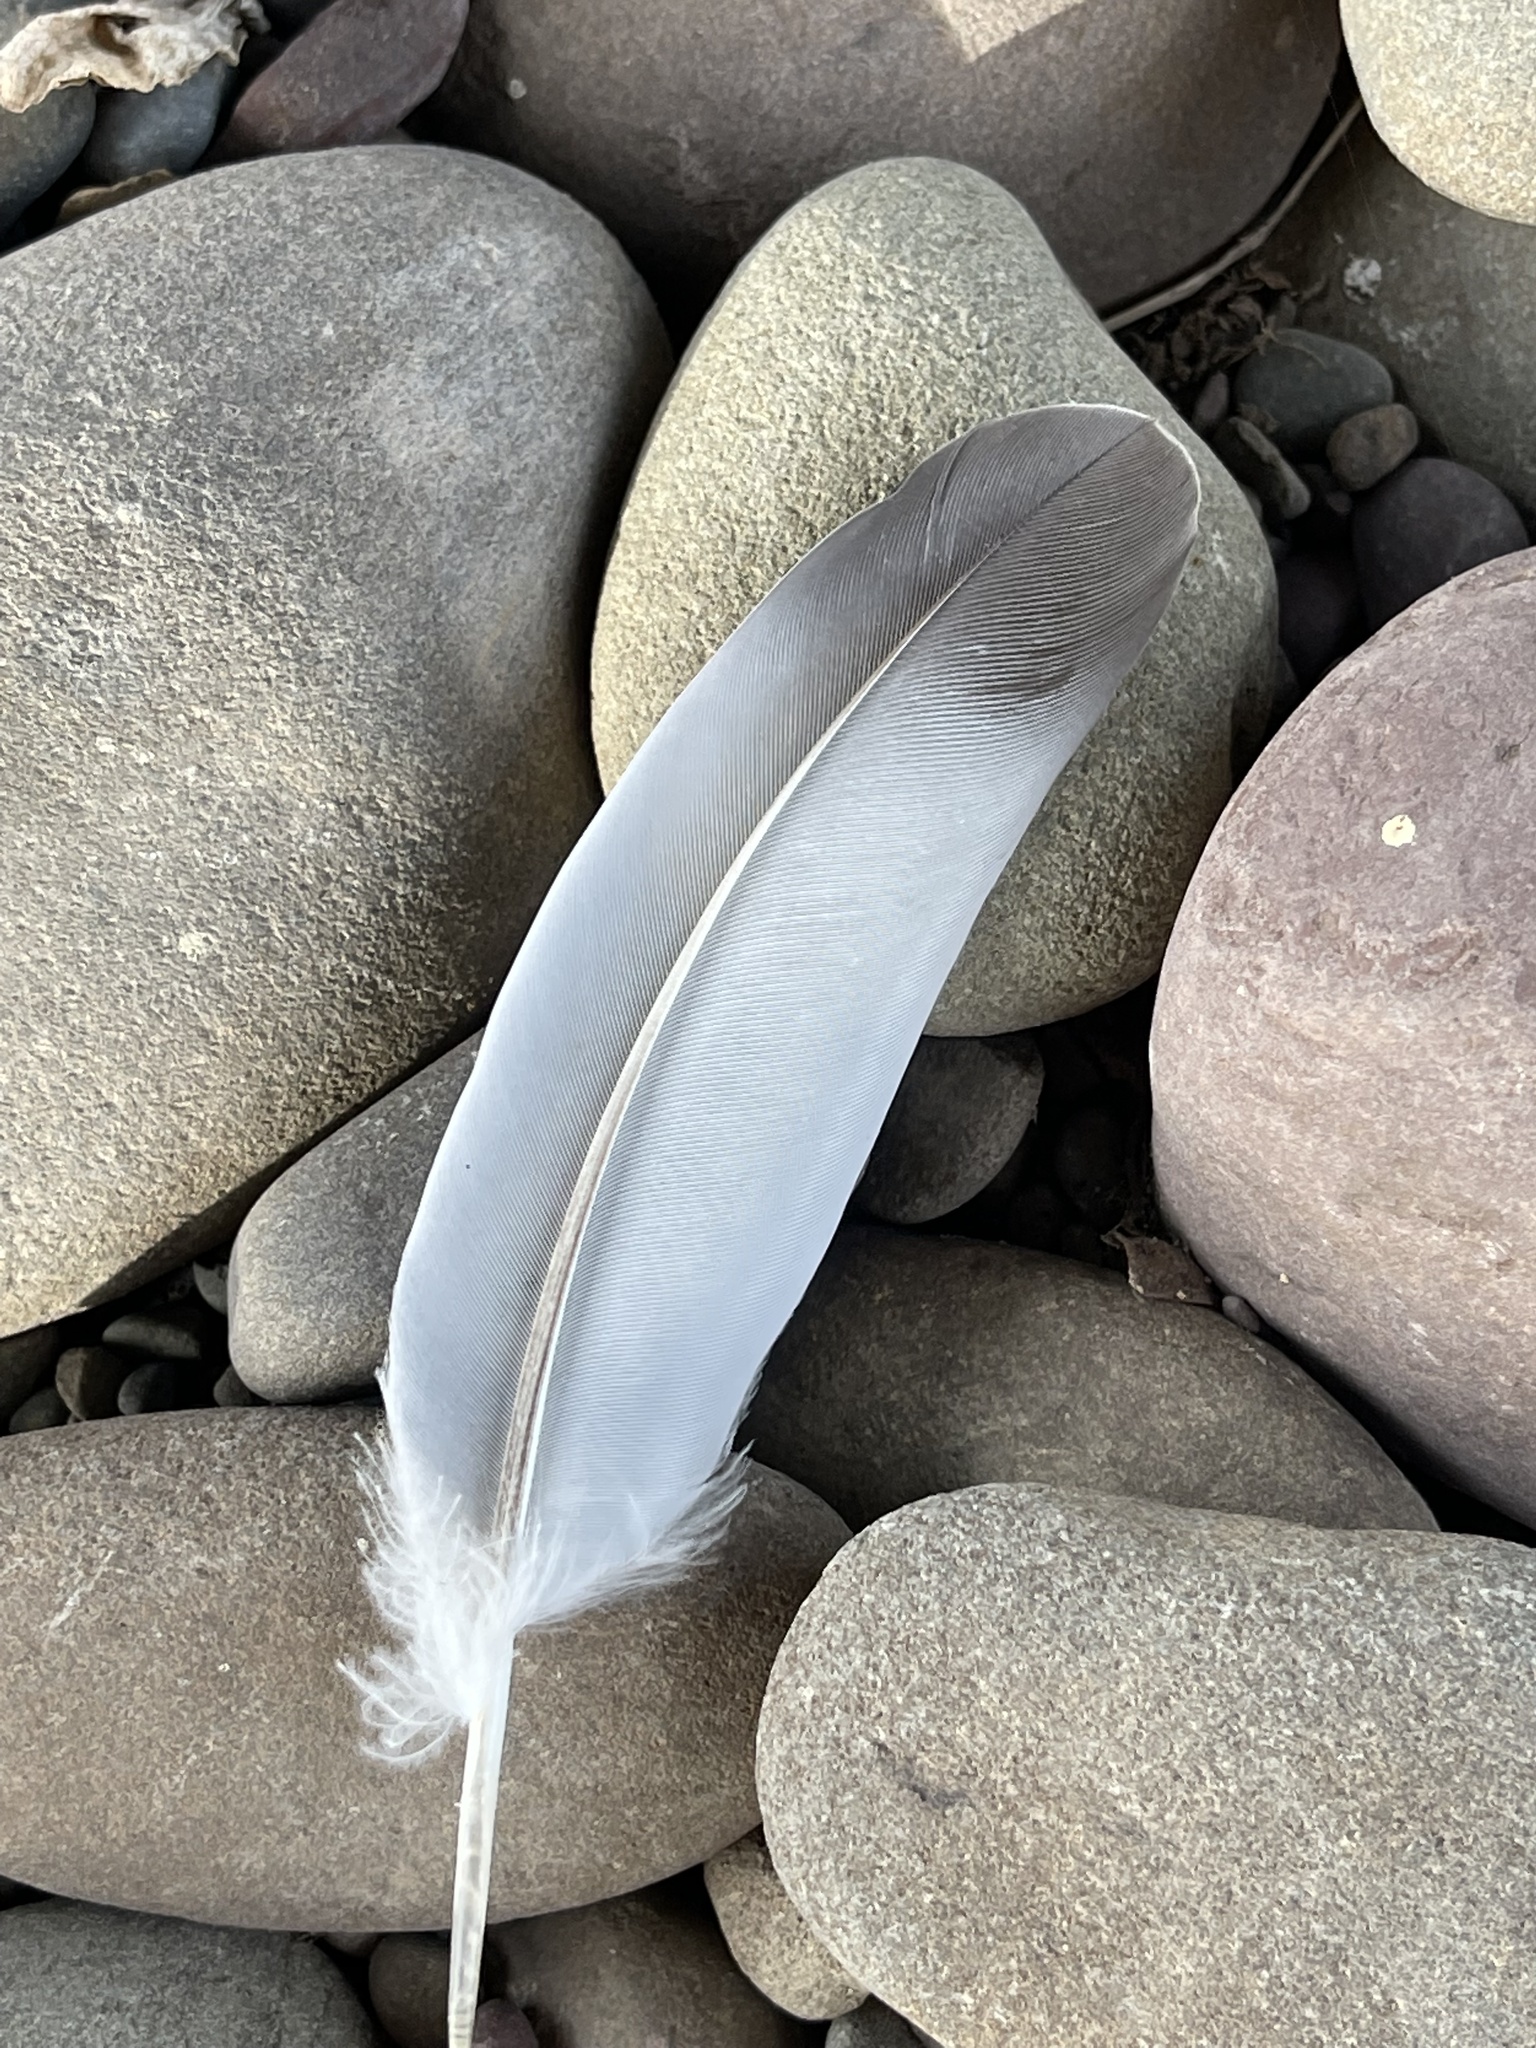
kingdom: Animalia
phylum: Chordata
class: Aves
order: Columbiformes
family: Columbidae
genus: Columba
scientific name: Columba livia
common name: Rock pigeon
